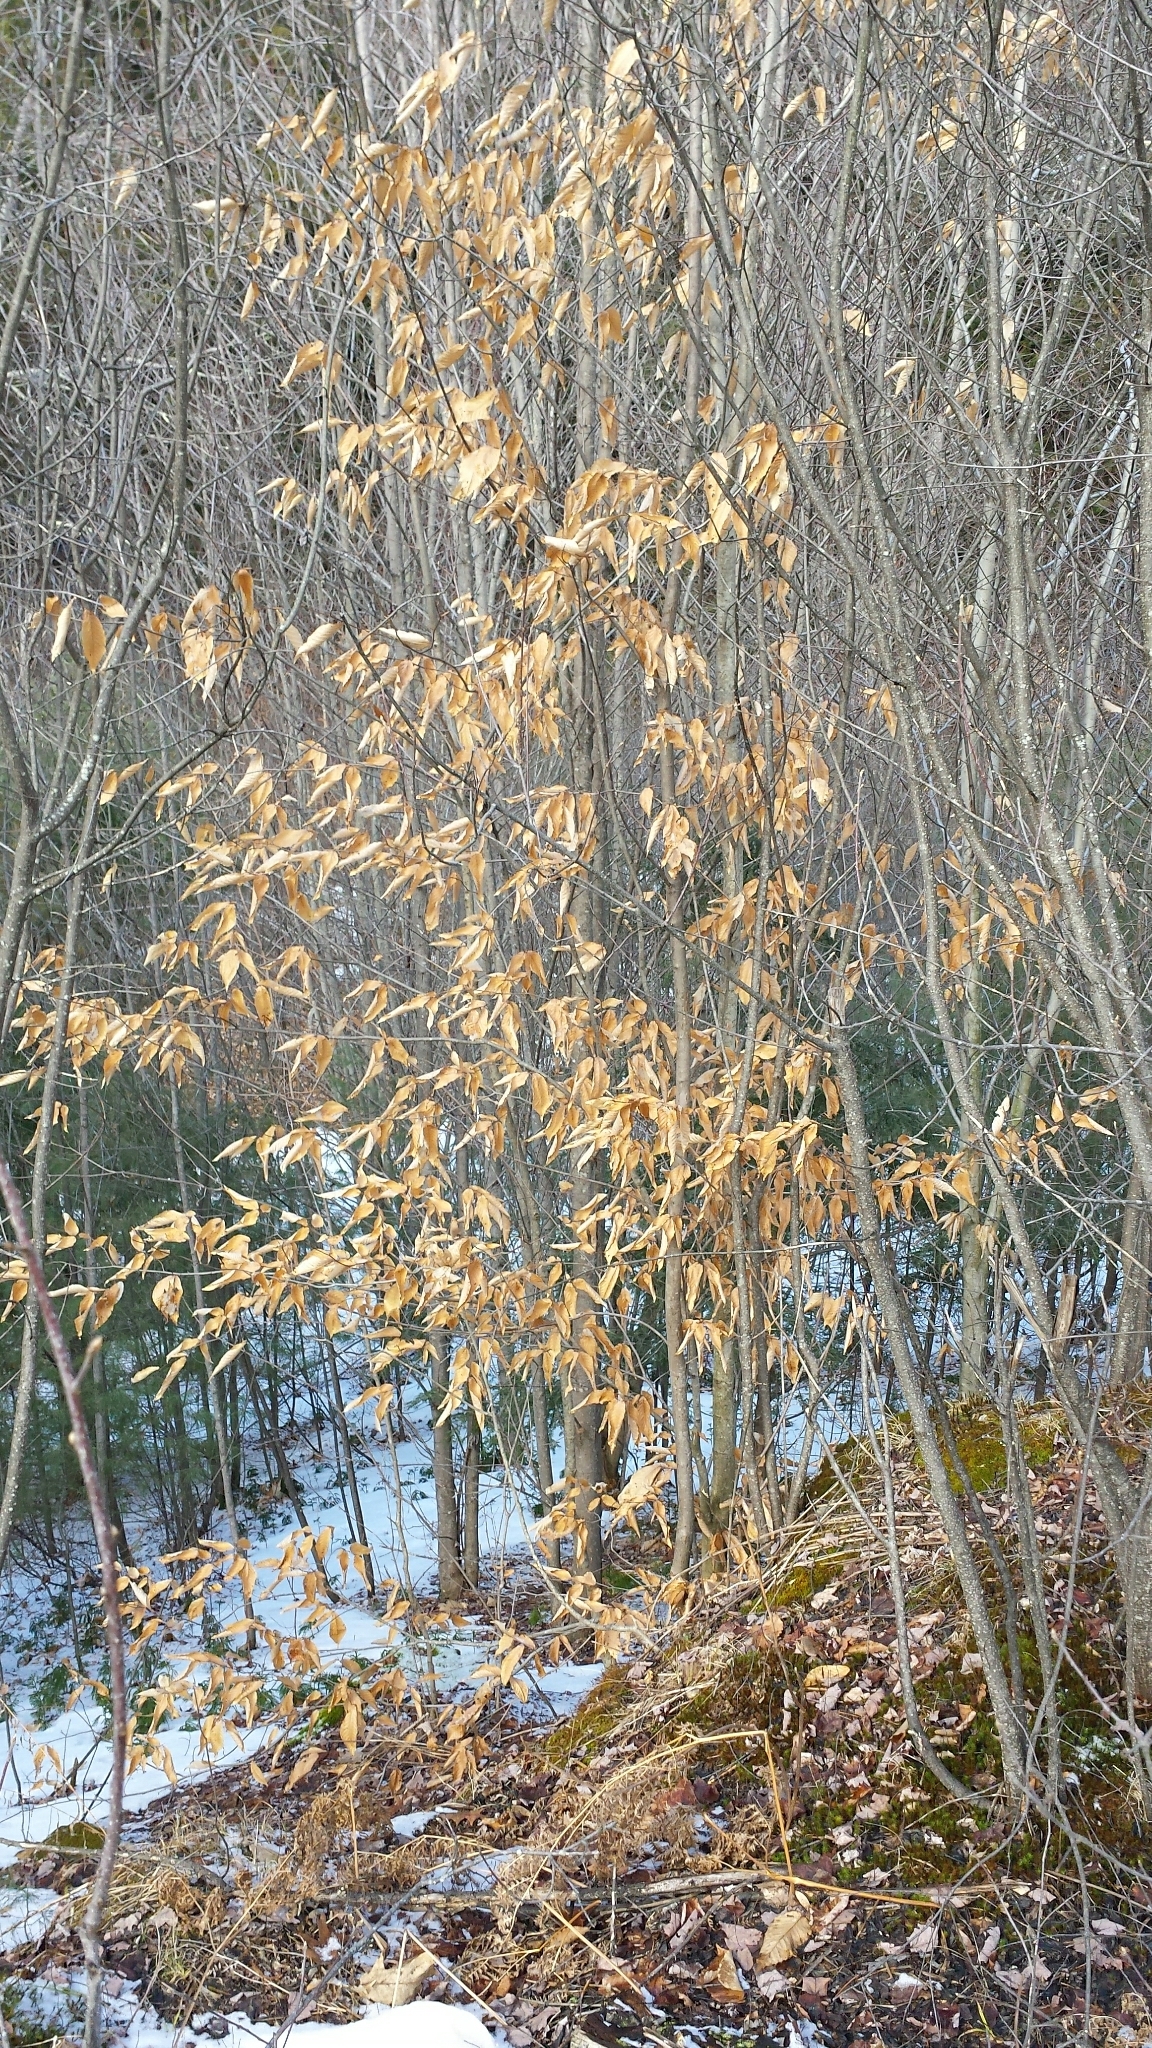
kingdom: Plantae
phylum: Tracheophyta
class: Magnoliopsida
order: Fagales
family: Fagaceae
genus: Fagus
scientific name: Fagus grandifolia
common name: American beech
